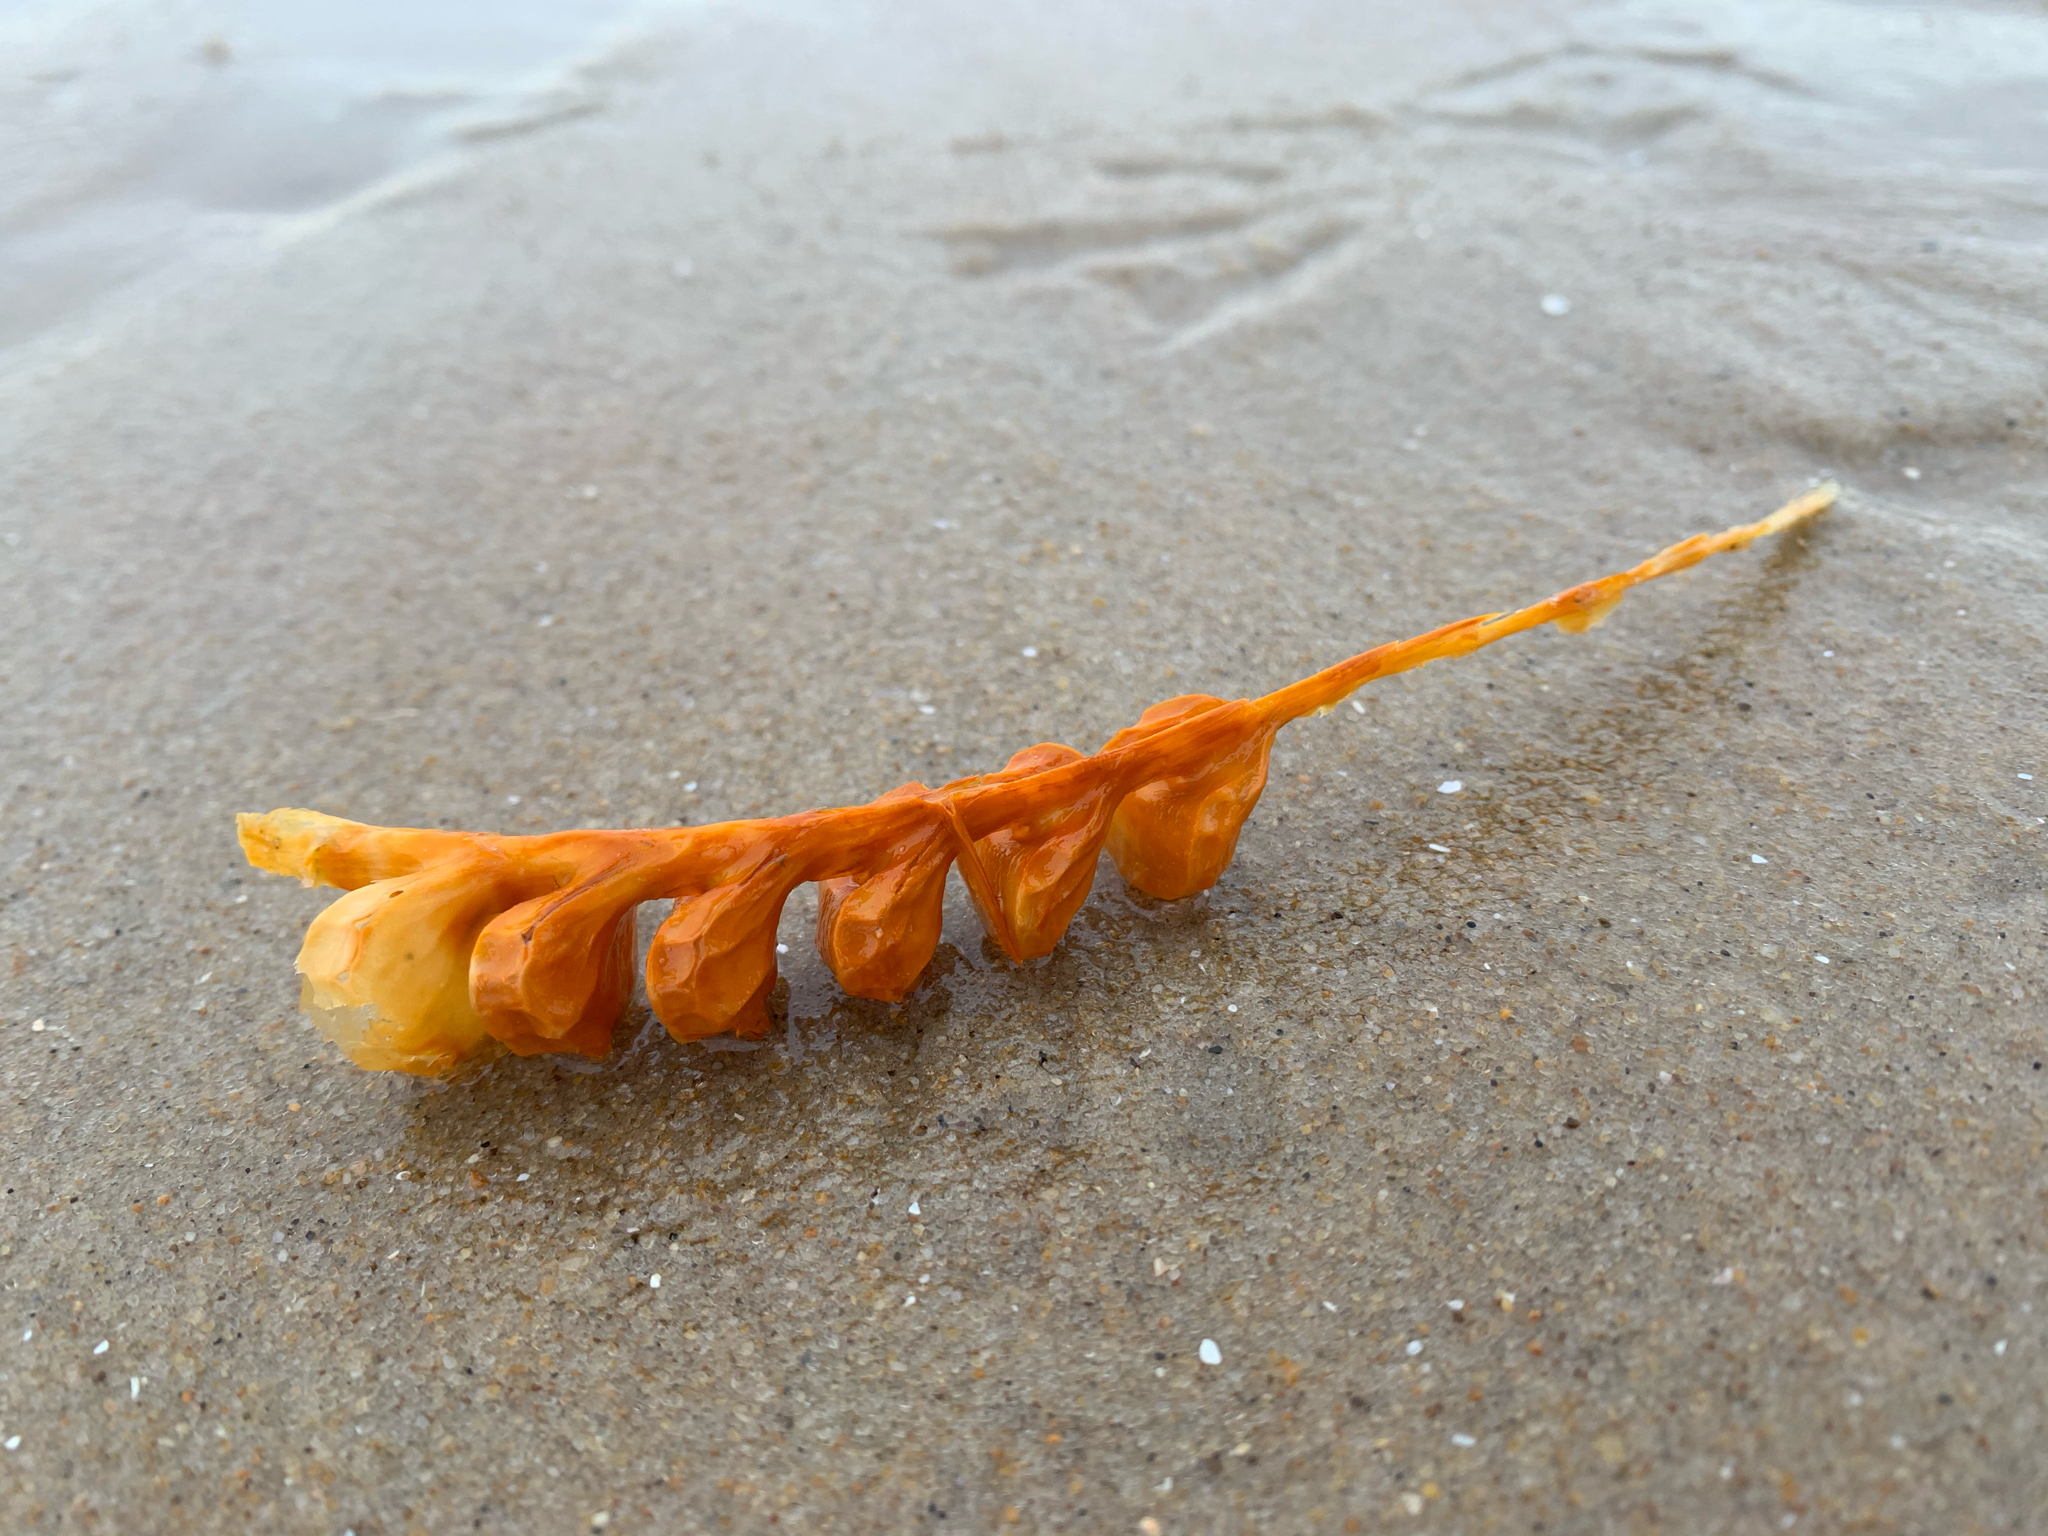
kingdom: Animalia
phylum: Mollusca
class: Gastropoda
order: Neogastropoda
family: Busyconidae
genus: Busycon
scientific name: Busycon carica
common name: Knobbed whelk
